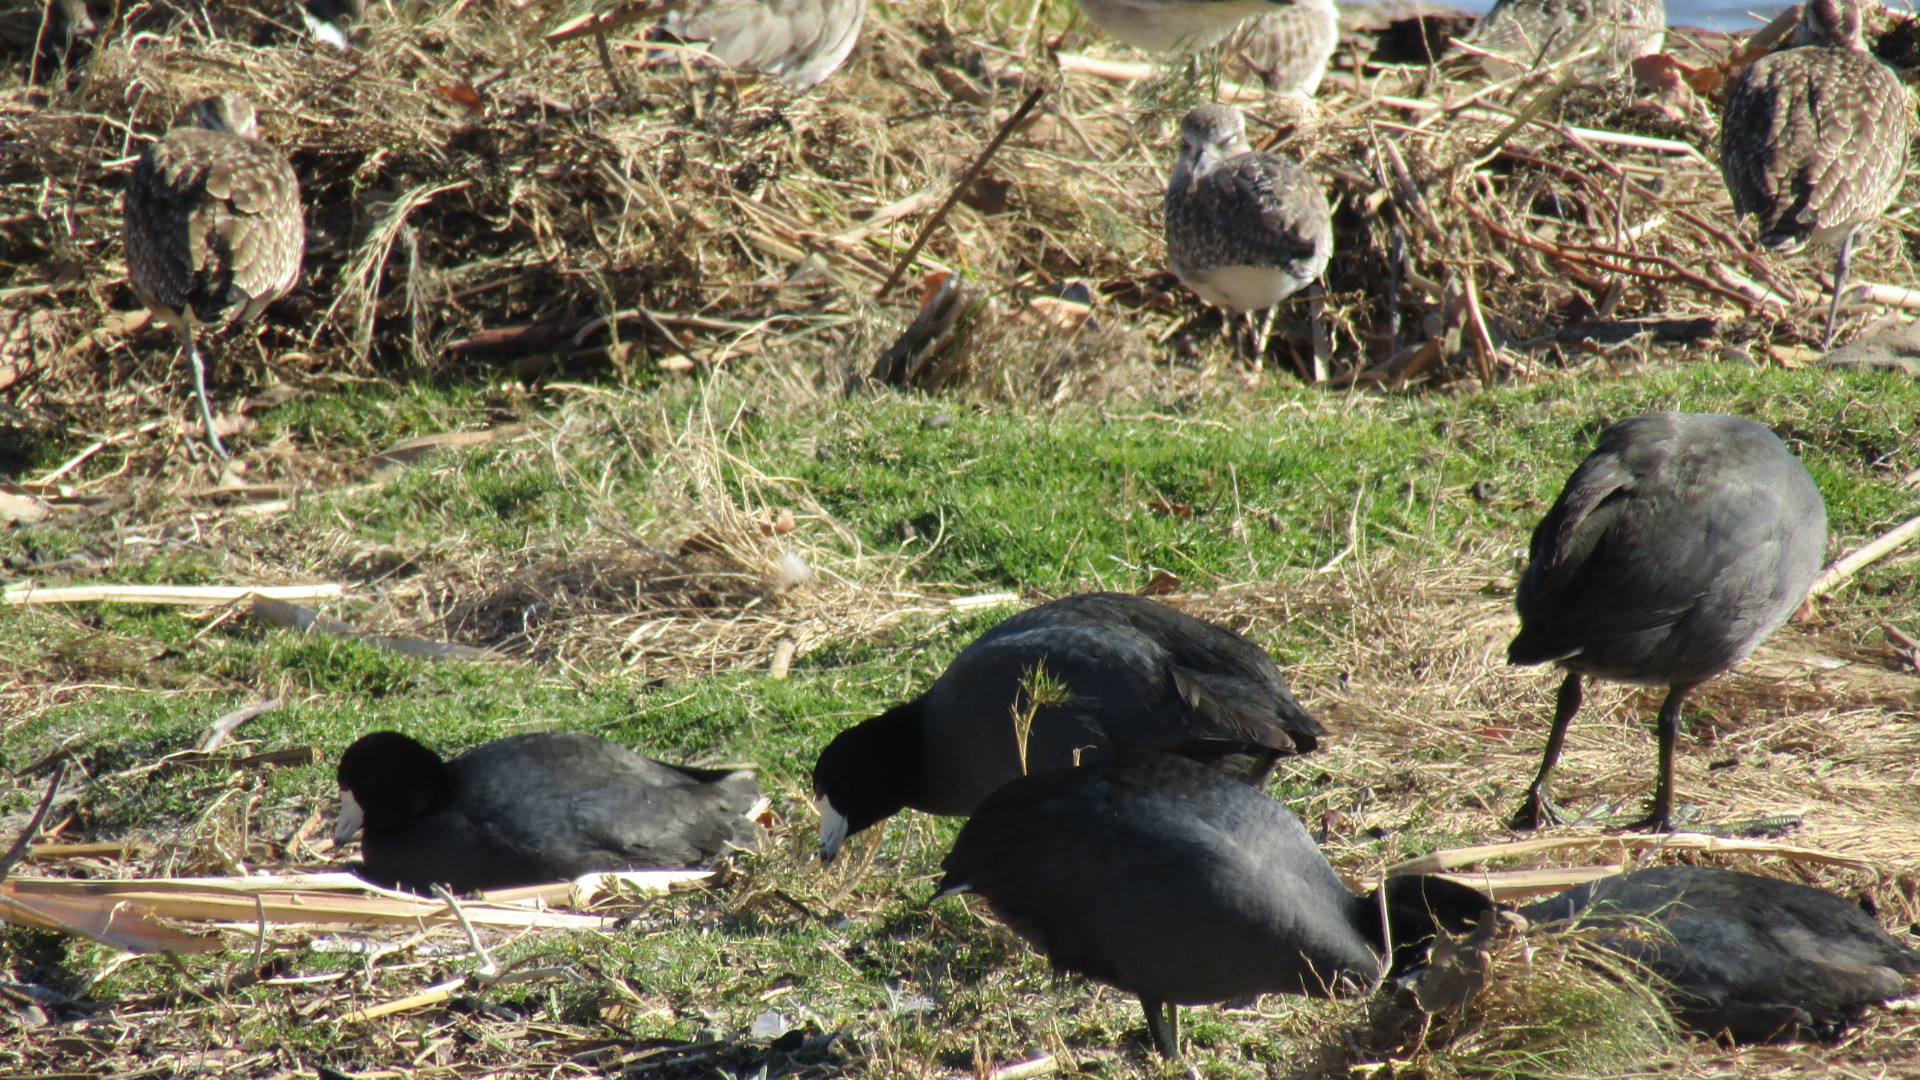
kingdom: Animalia
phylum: Chordata
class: Aves
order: Gruiformes
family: Rallidae
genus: Fulica
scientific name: Fulica americana
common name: American coot
